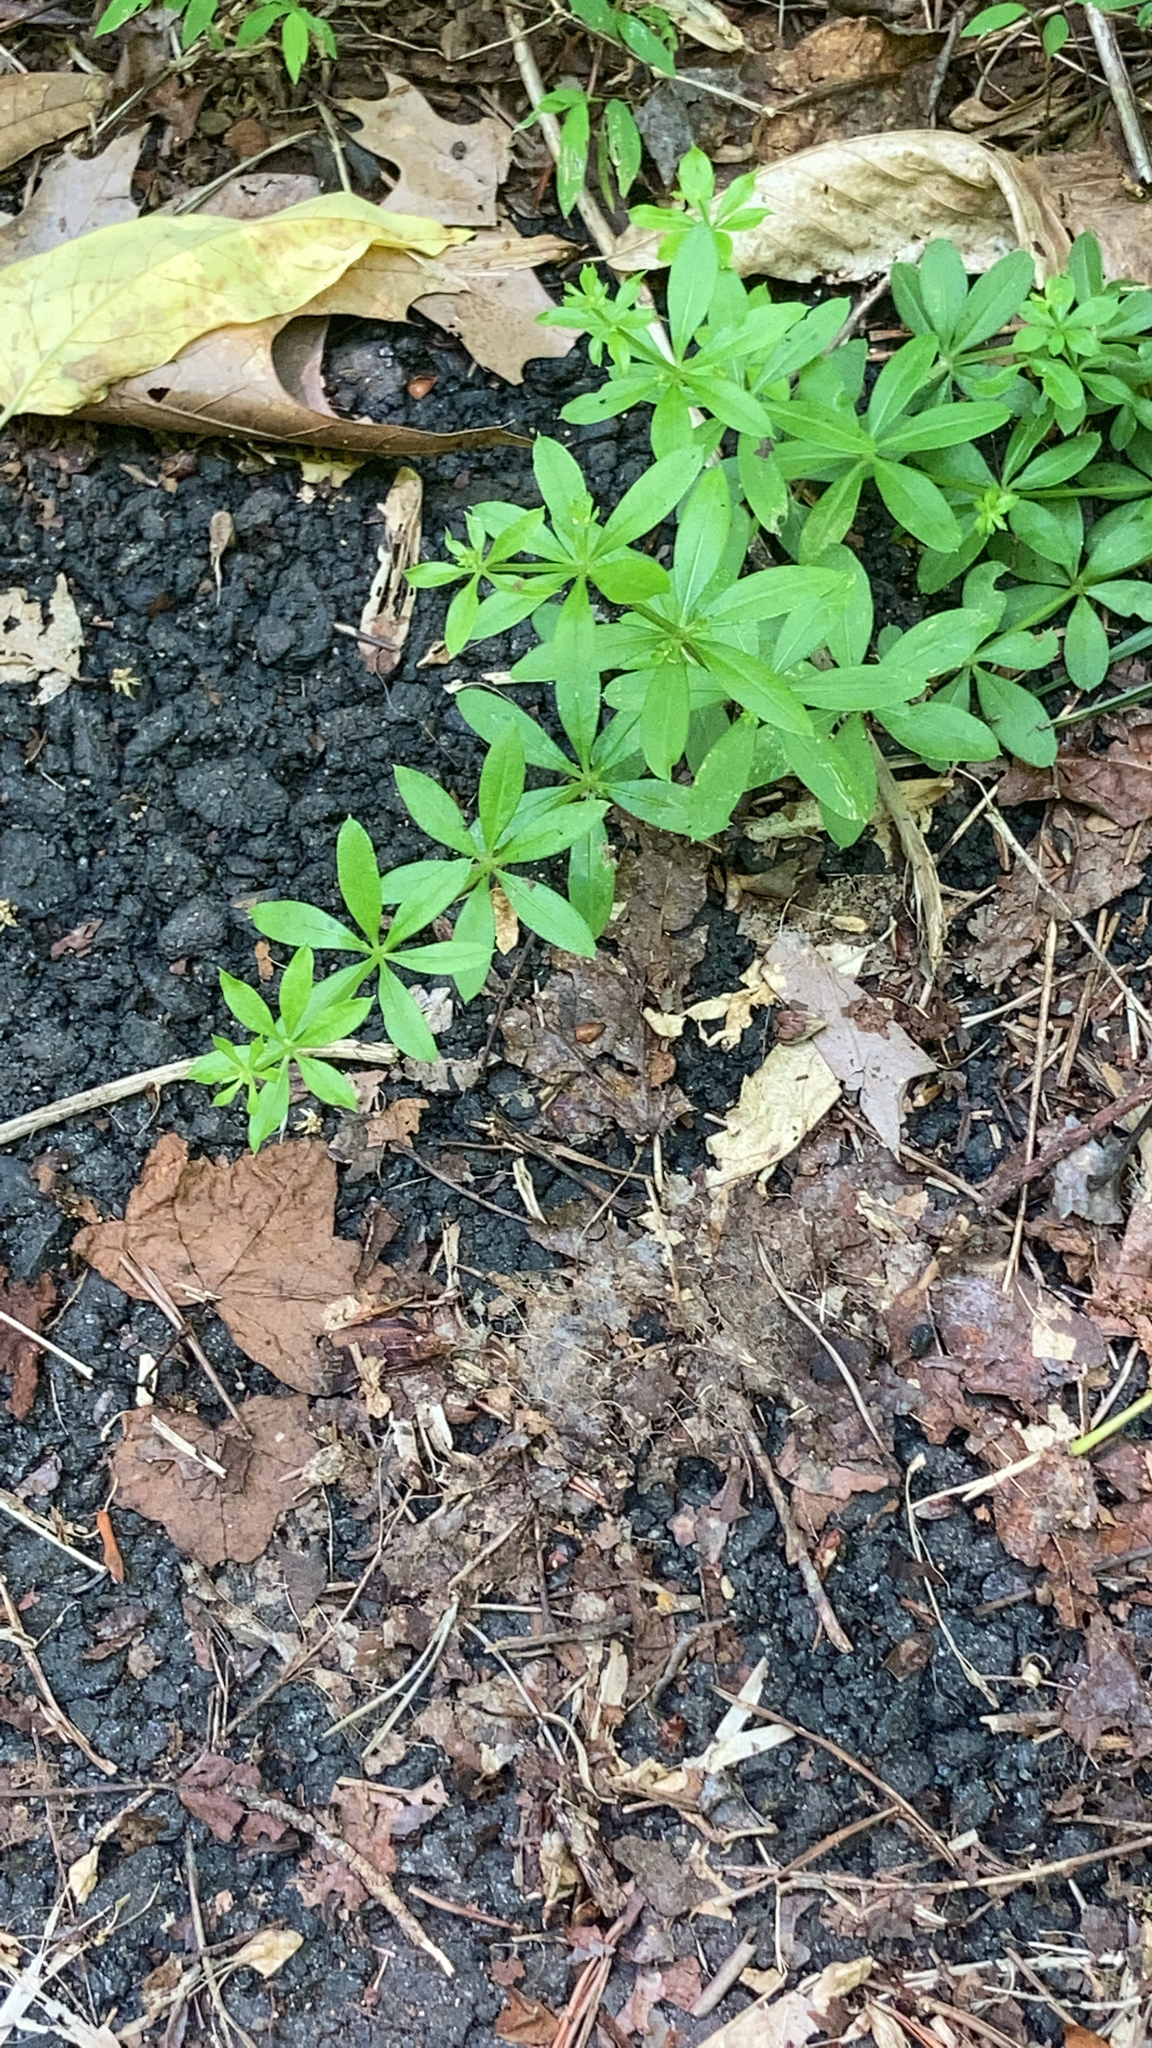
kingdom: Plantae
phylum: Tracheophyta
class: Magnoliopsida
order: Gentianales
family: Rubiaceae
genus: Galium
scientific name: Galium triflorum
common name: Fragrant bedstraw
